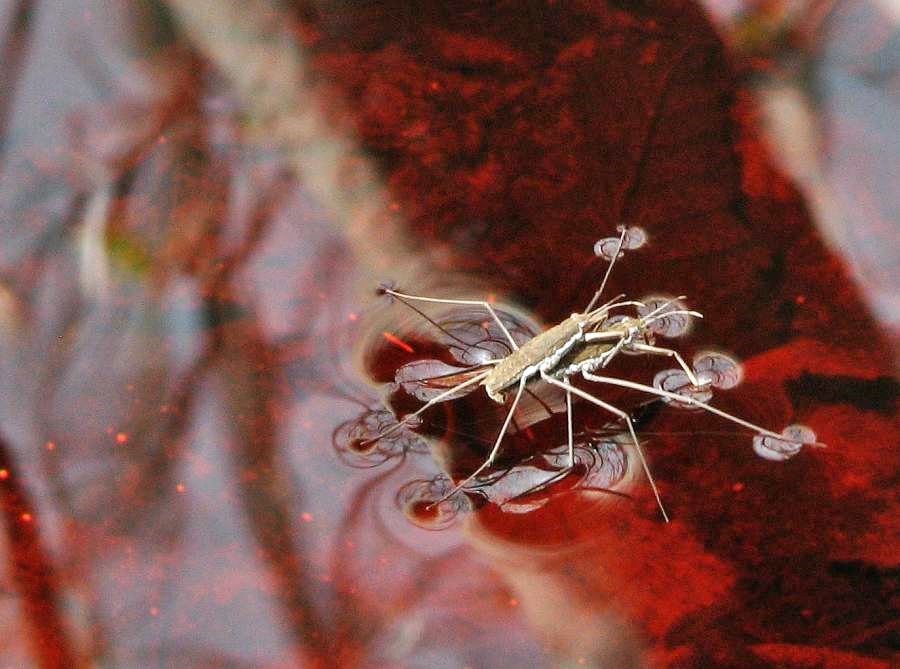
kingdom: Animalia
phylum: Arthropoda
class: Insecta
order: Hemiptera
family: Gerridae
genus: Aquarius
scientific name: Aquarius remigis
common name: Common water strider
